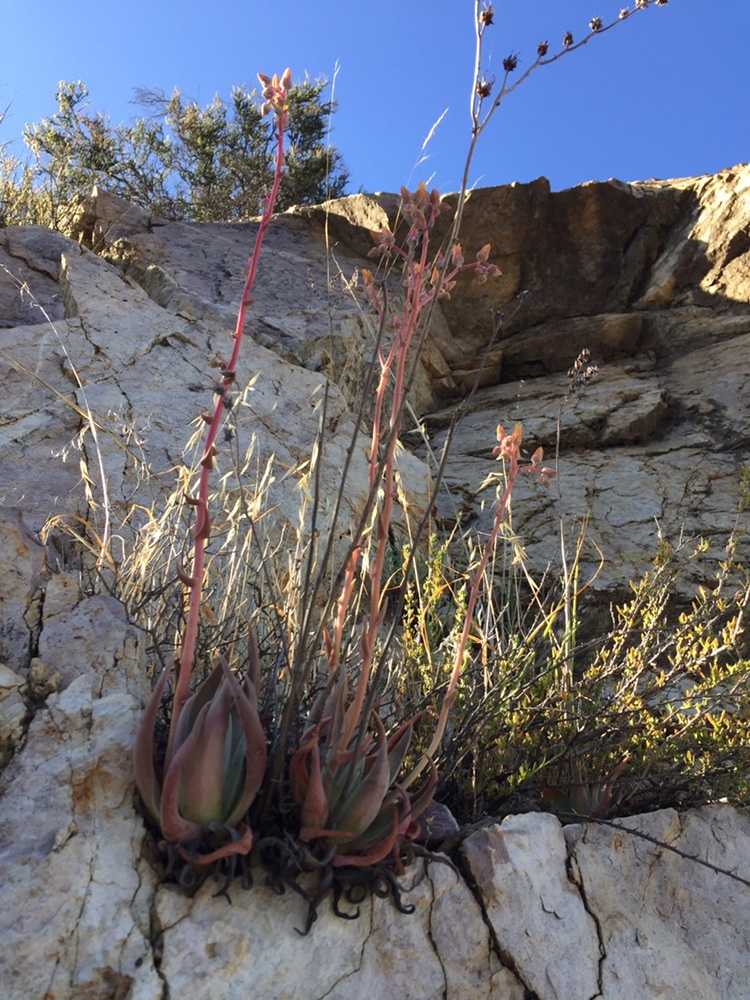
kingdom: Plantae
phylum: Tracheophyta
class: Magnoliopsida
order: Saxifragales
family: Crassulaceae
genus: Dudleya
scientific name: Dudleya lanceolata
